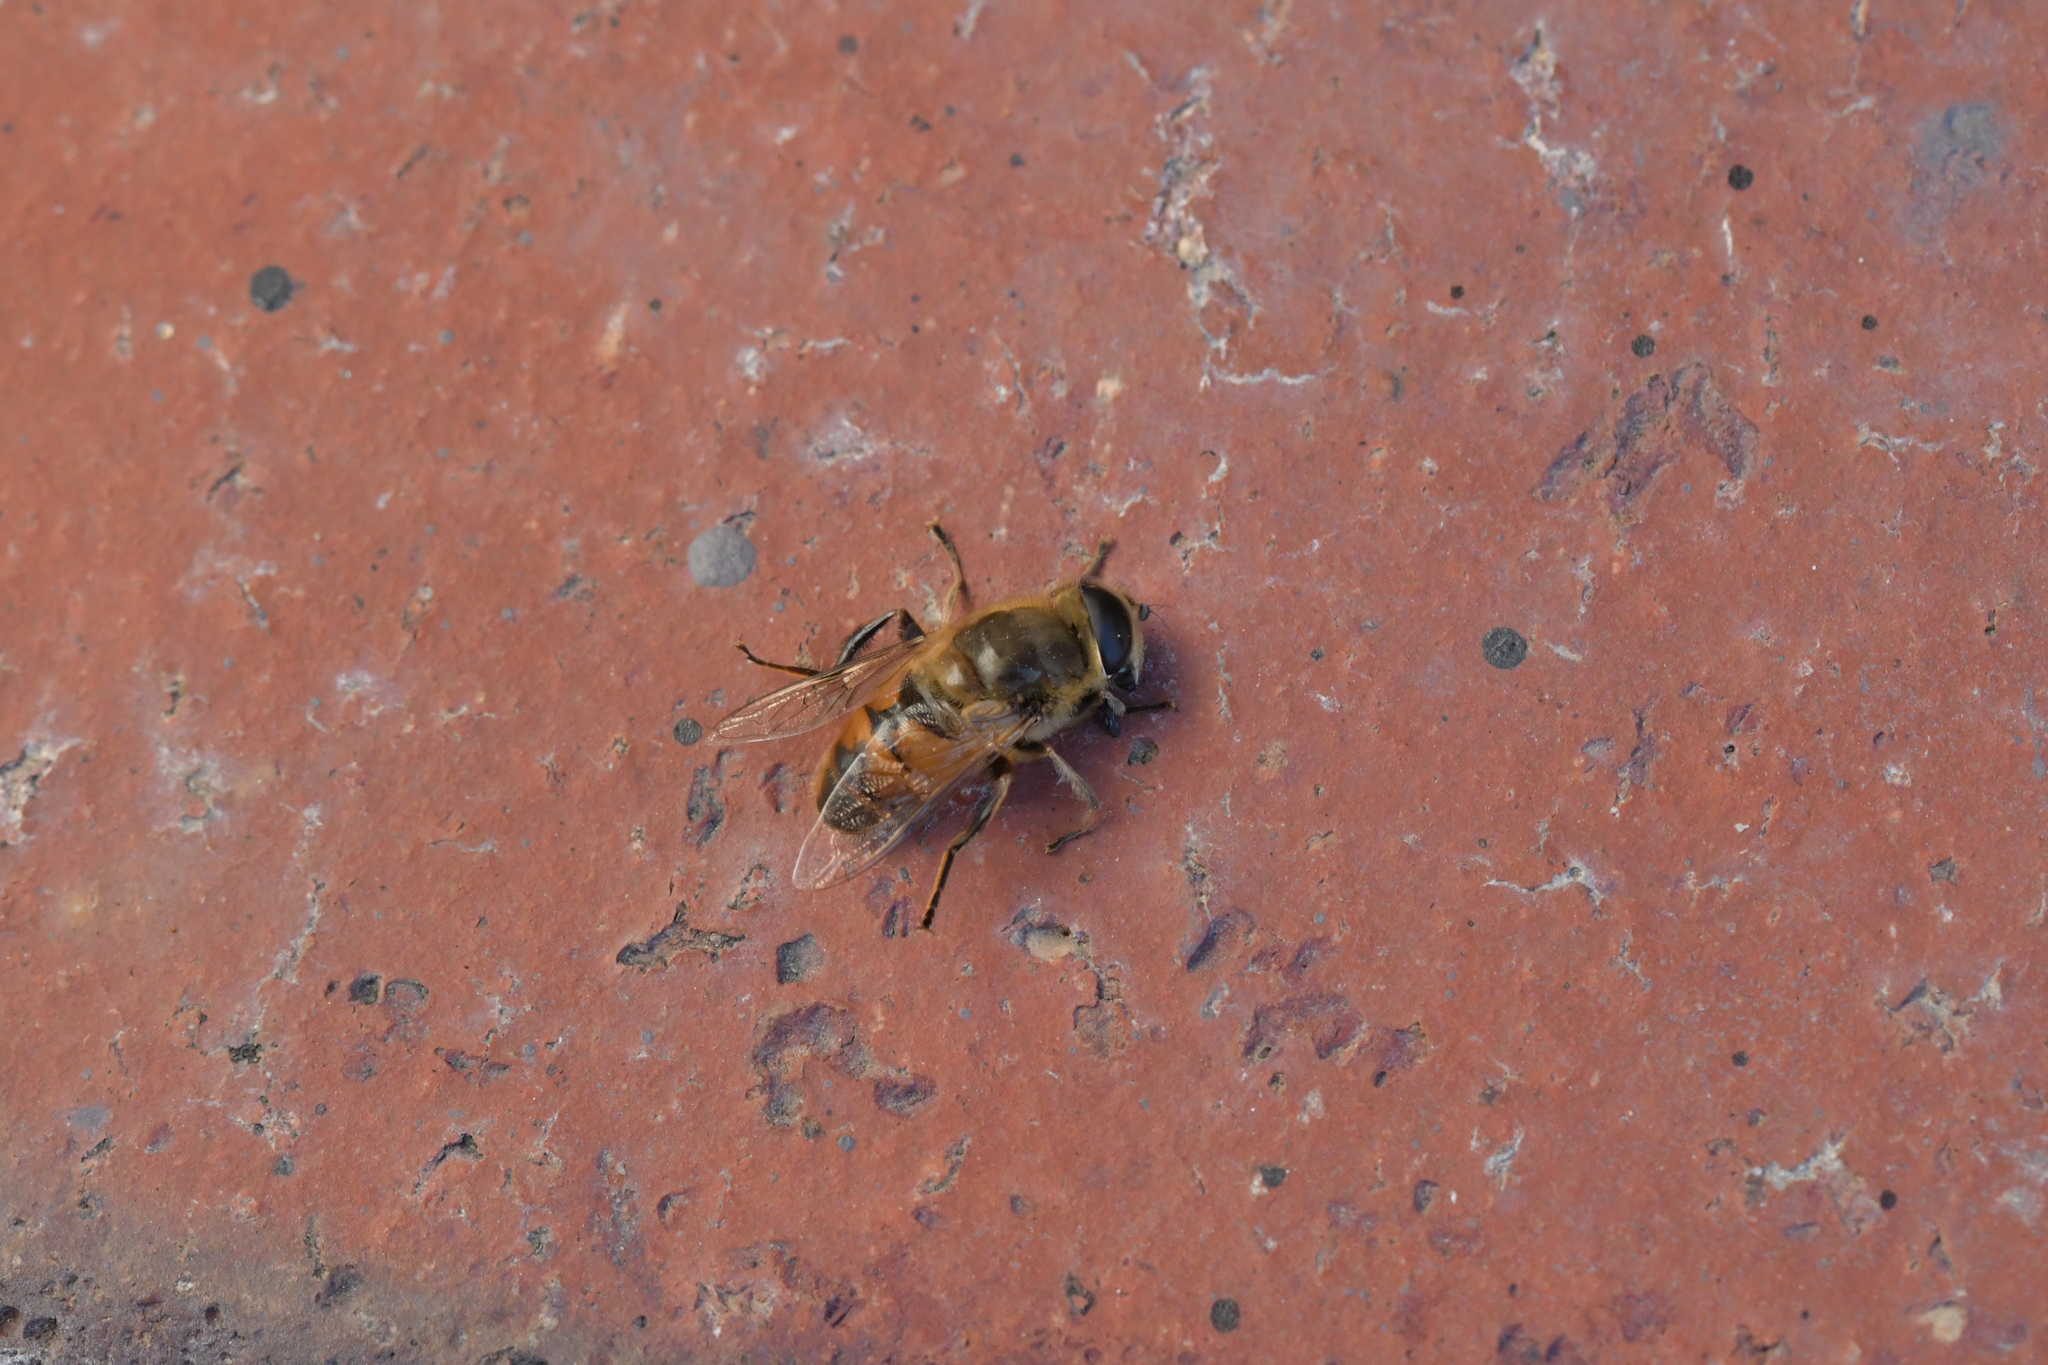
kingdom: Animalia
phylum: Arthropoda
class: Insecta
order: Diptera
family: Syrphidae
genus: Eristalis
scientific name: Eristalis tenax
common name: Drone fly
